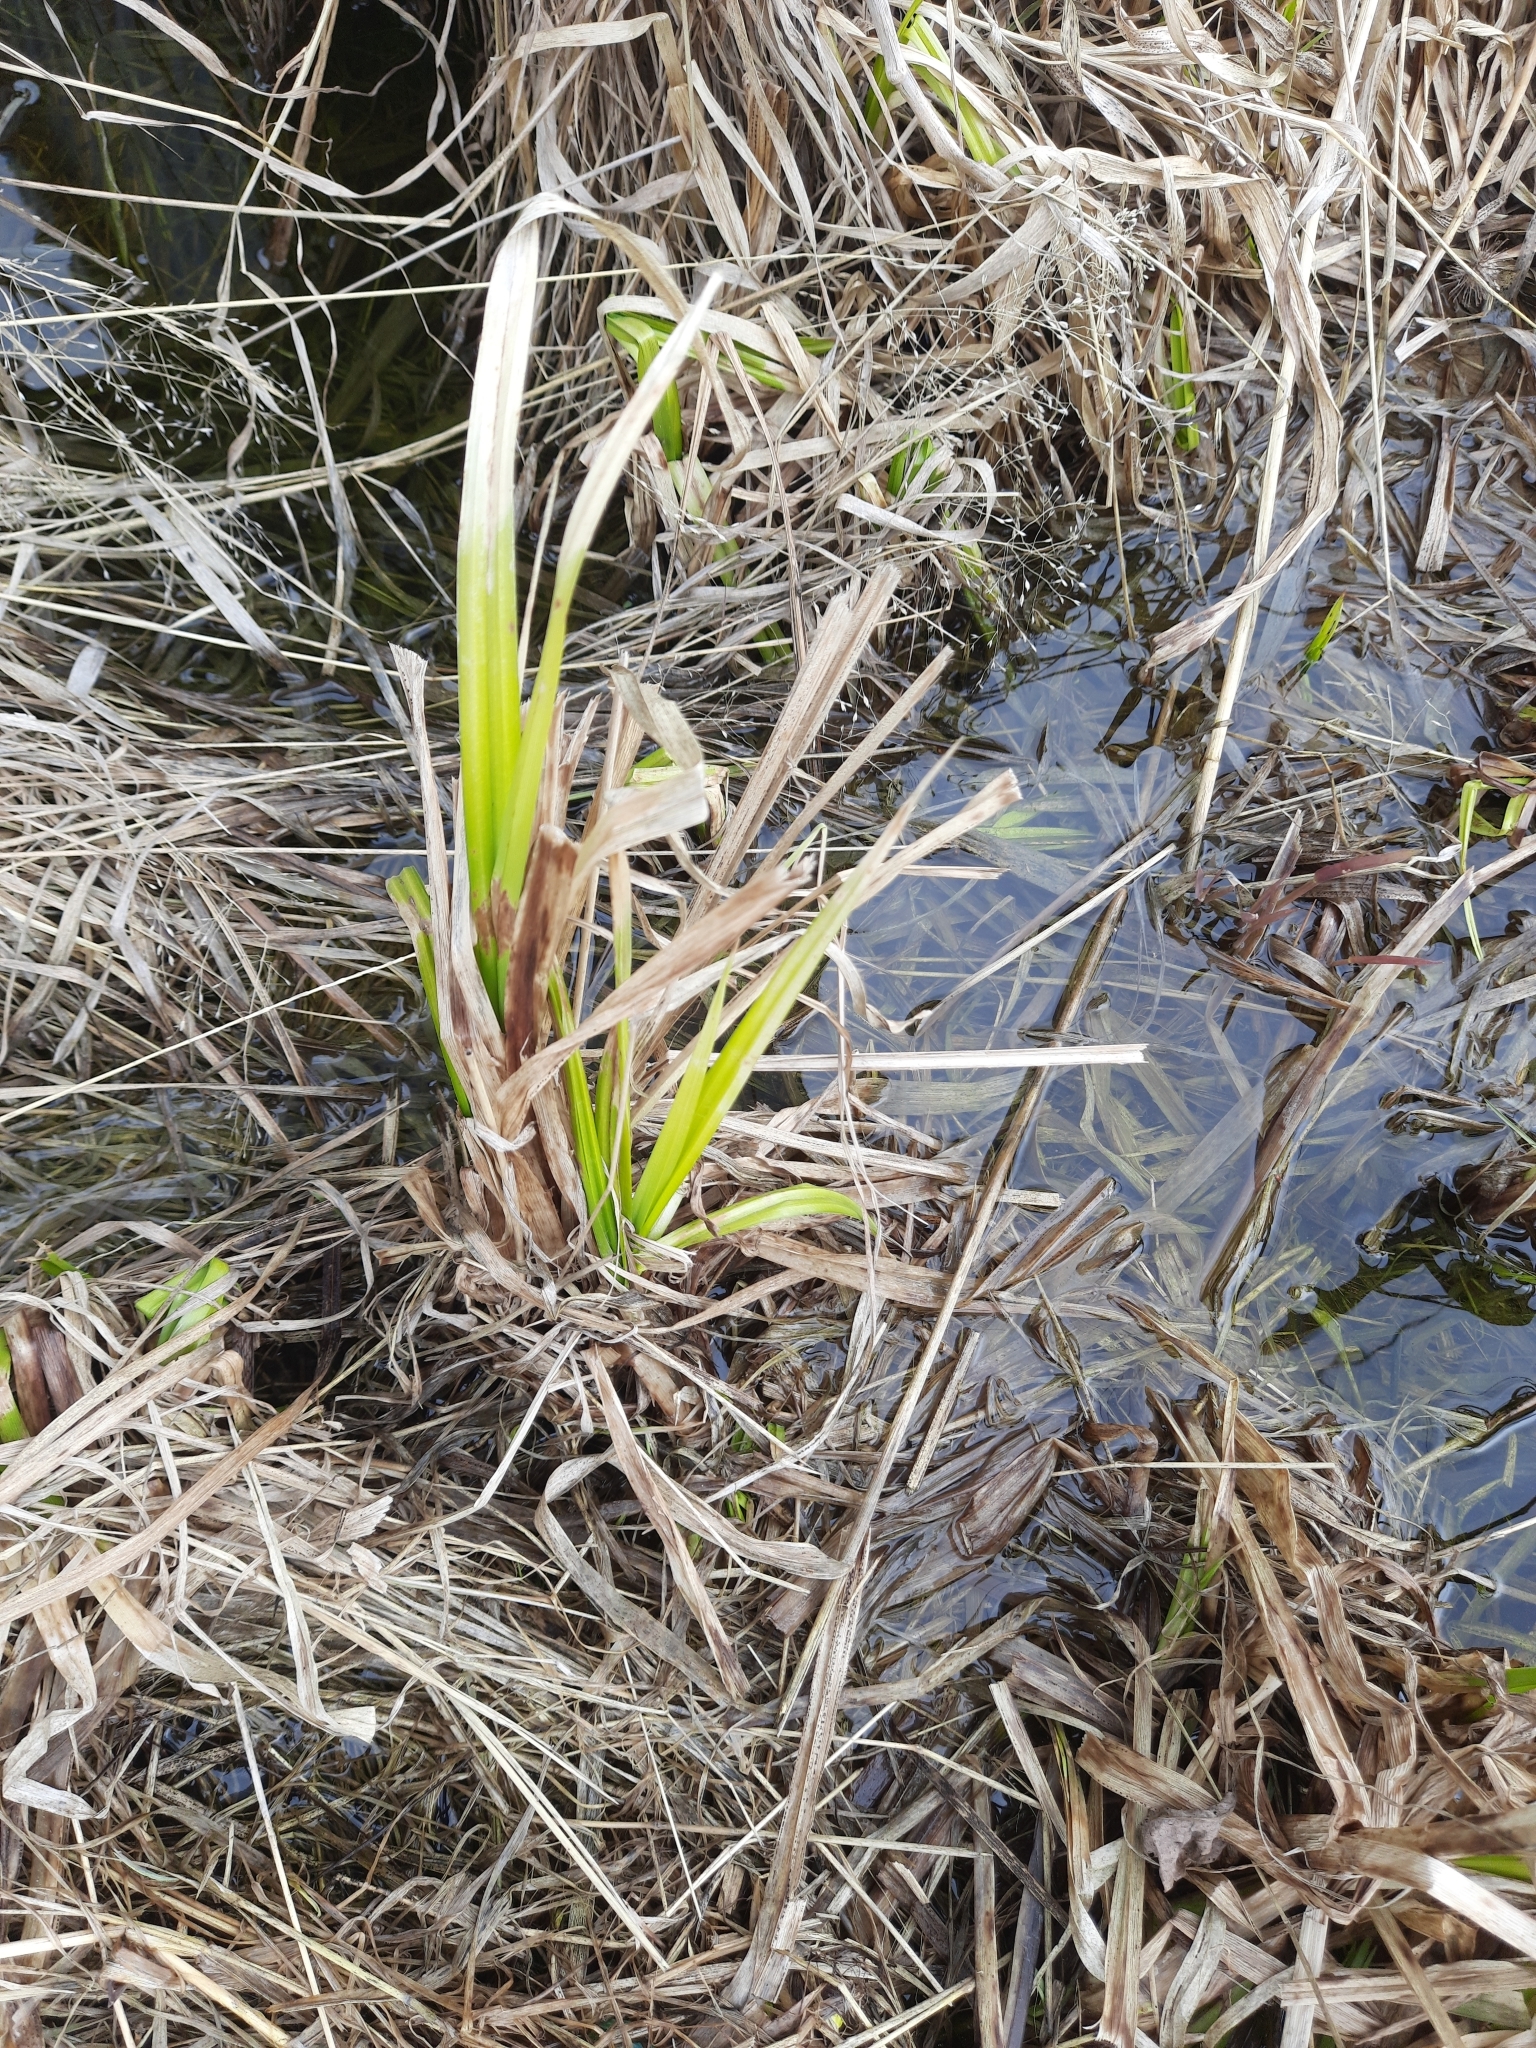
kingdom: Plantae
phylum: Tracheophyta
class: Liliopsida
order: Poales
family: Cyperaceae
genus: Scirpus
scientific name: Scirpus sylvaticus
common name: Wood club-rush
